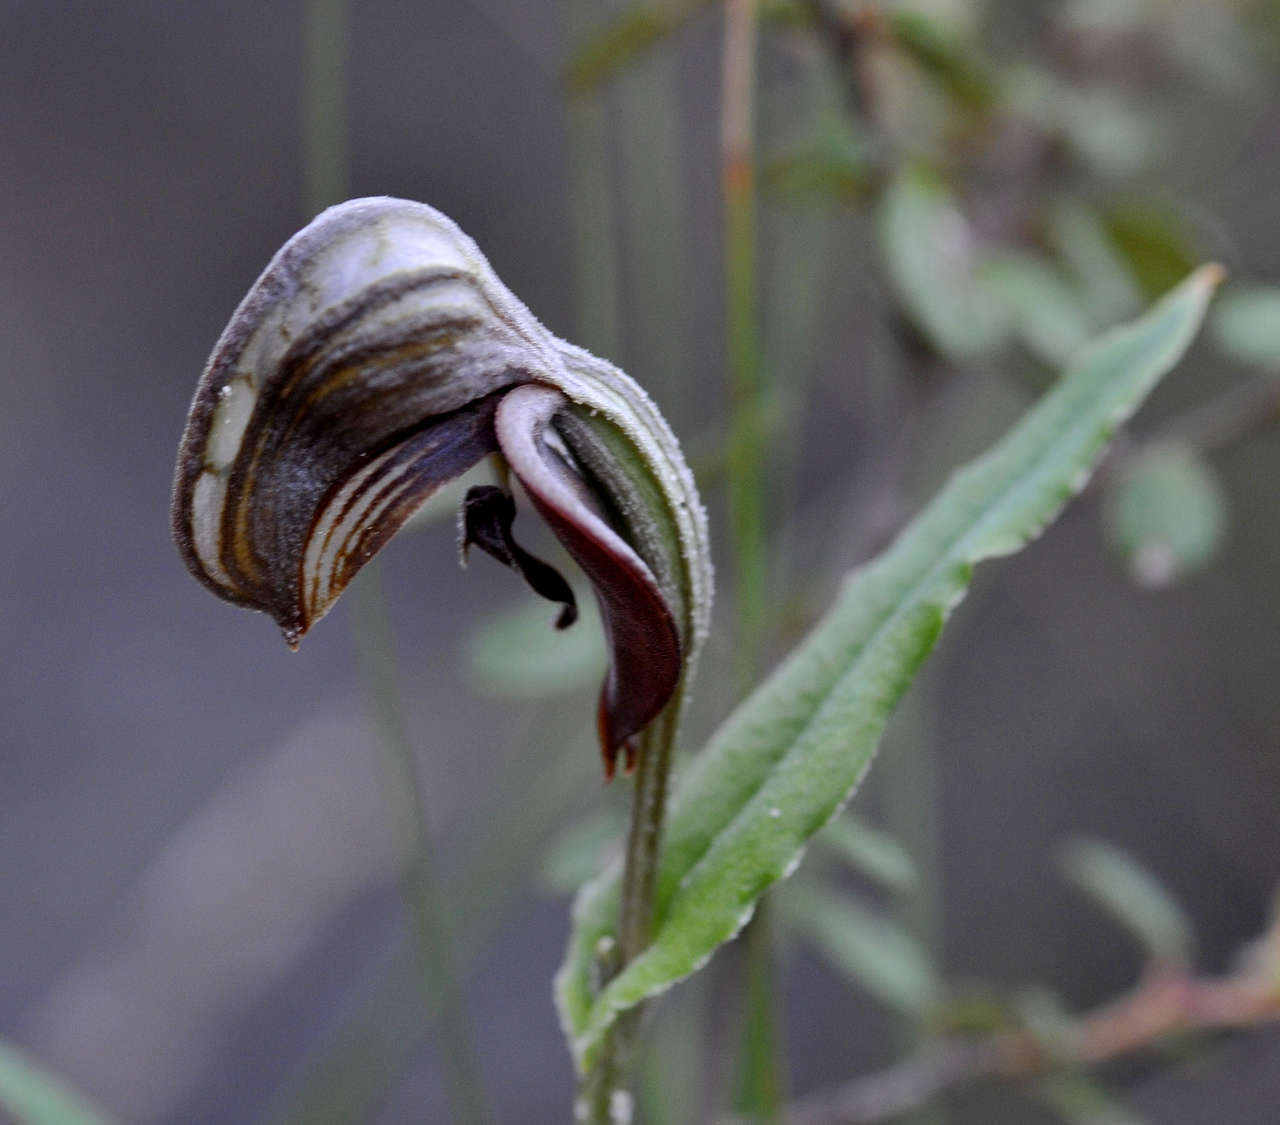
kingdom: Plantae
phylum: Tracheophyta
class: Liliopsida
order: Asparagales
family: Orchidaceae
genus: Pterostylis
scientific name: Pterostylis sanguinea
